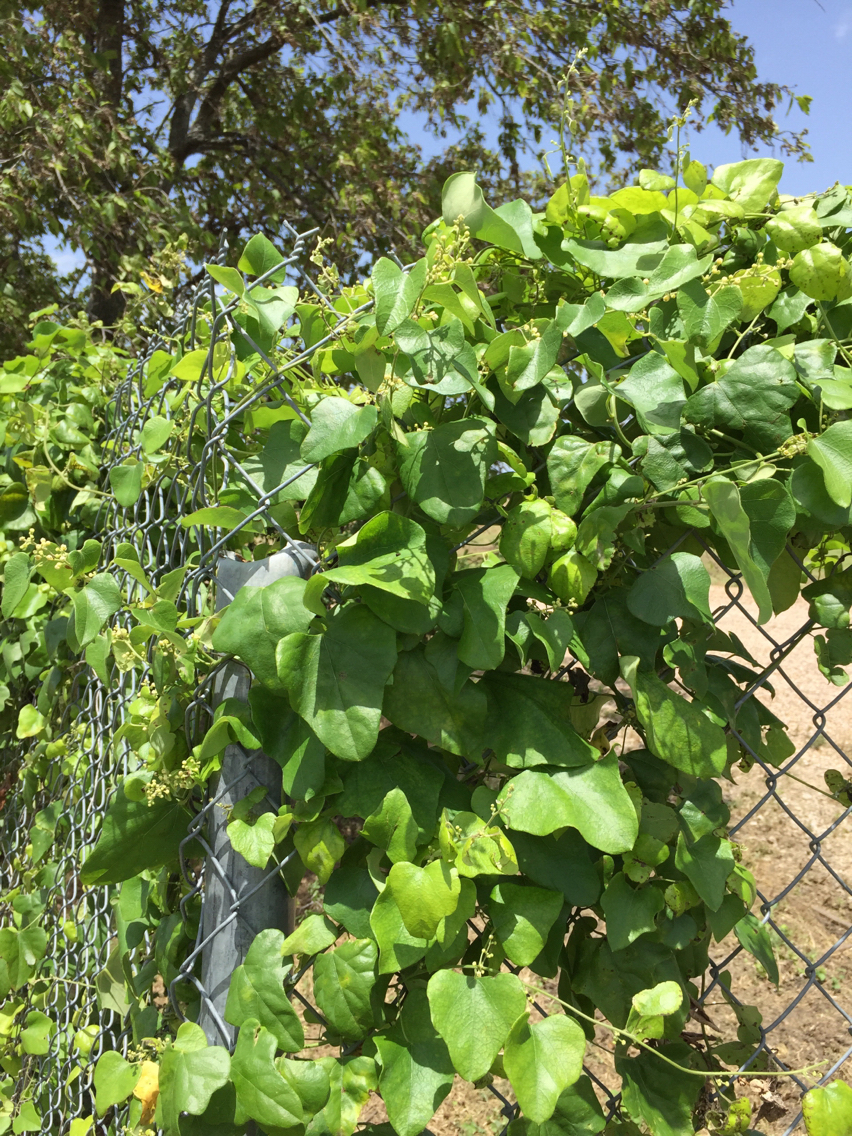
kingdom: Plantae
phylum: Tracheophyta
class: Magnoliopsida
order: Ranunculales
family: Menispermaceae
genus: Cocculus
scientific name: Cocculus carolinus
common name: Carolina moonseed
